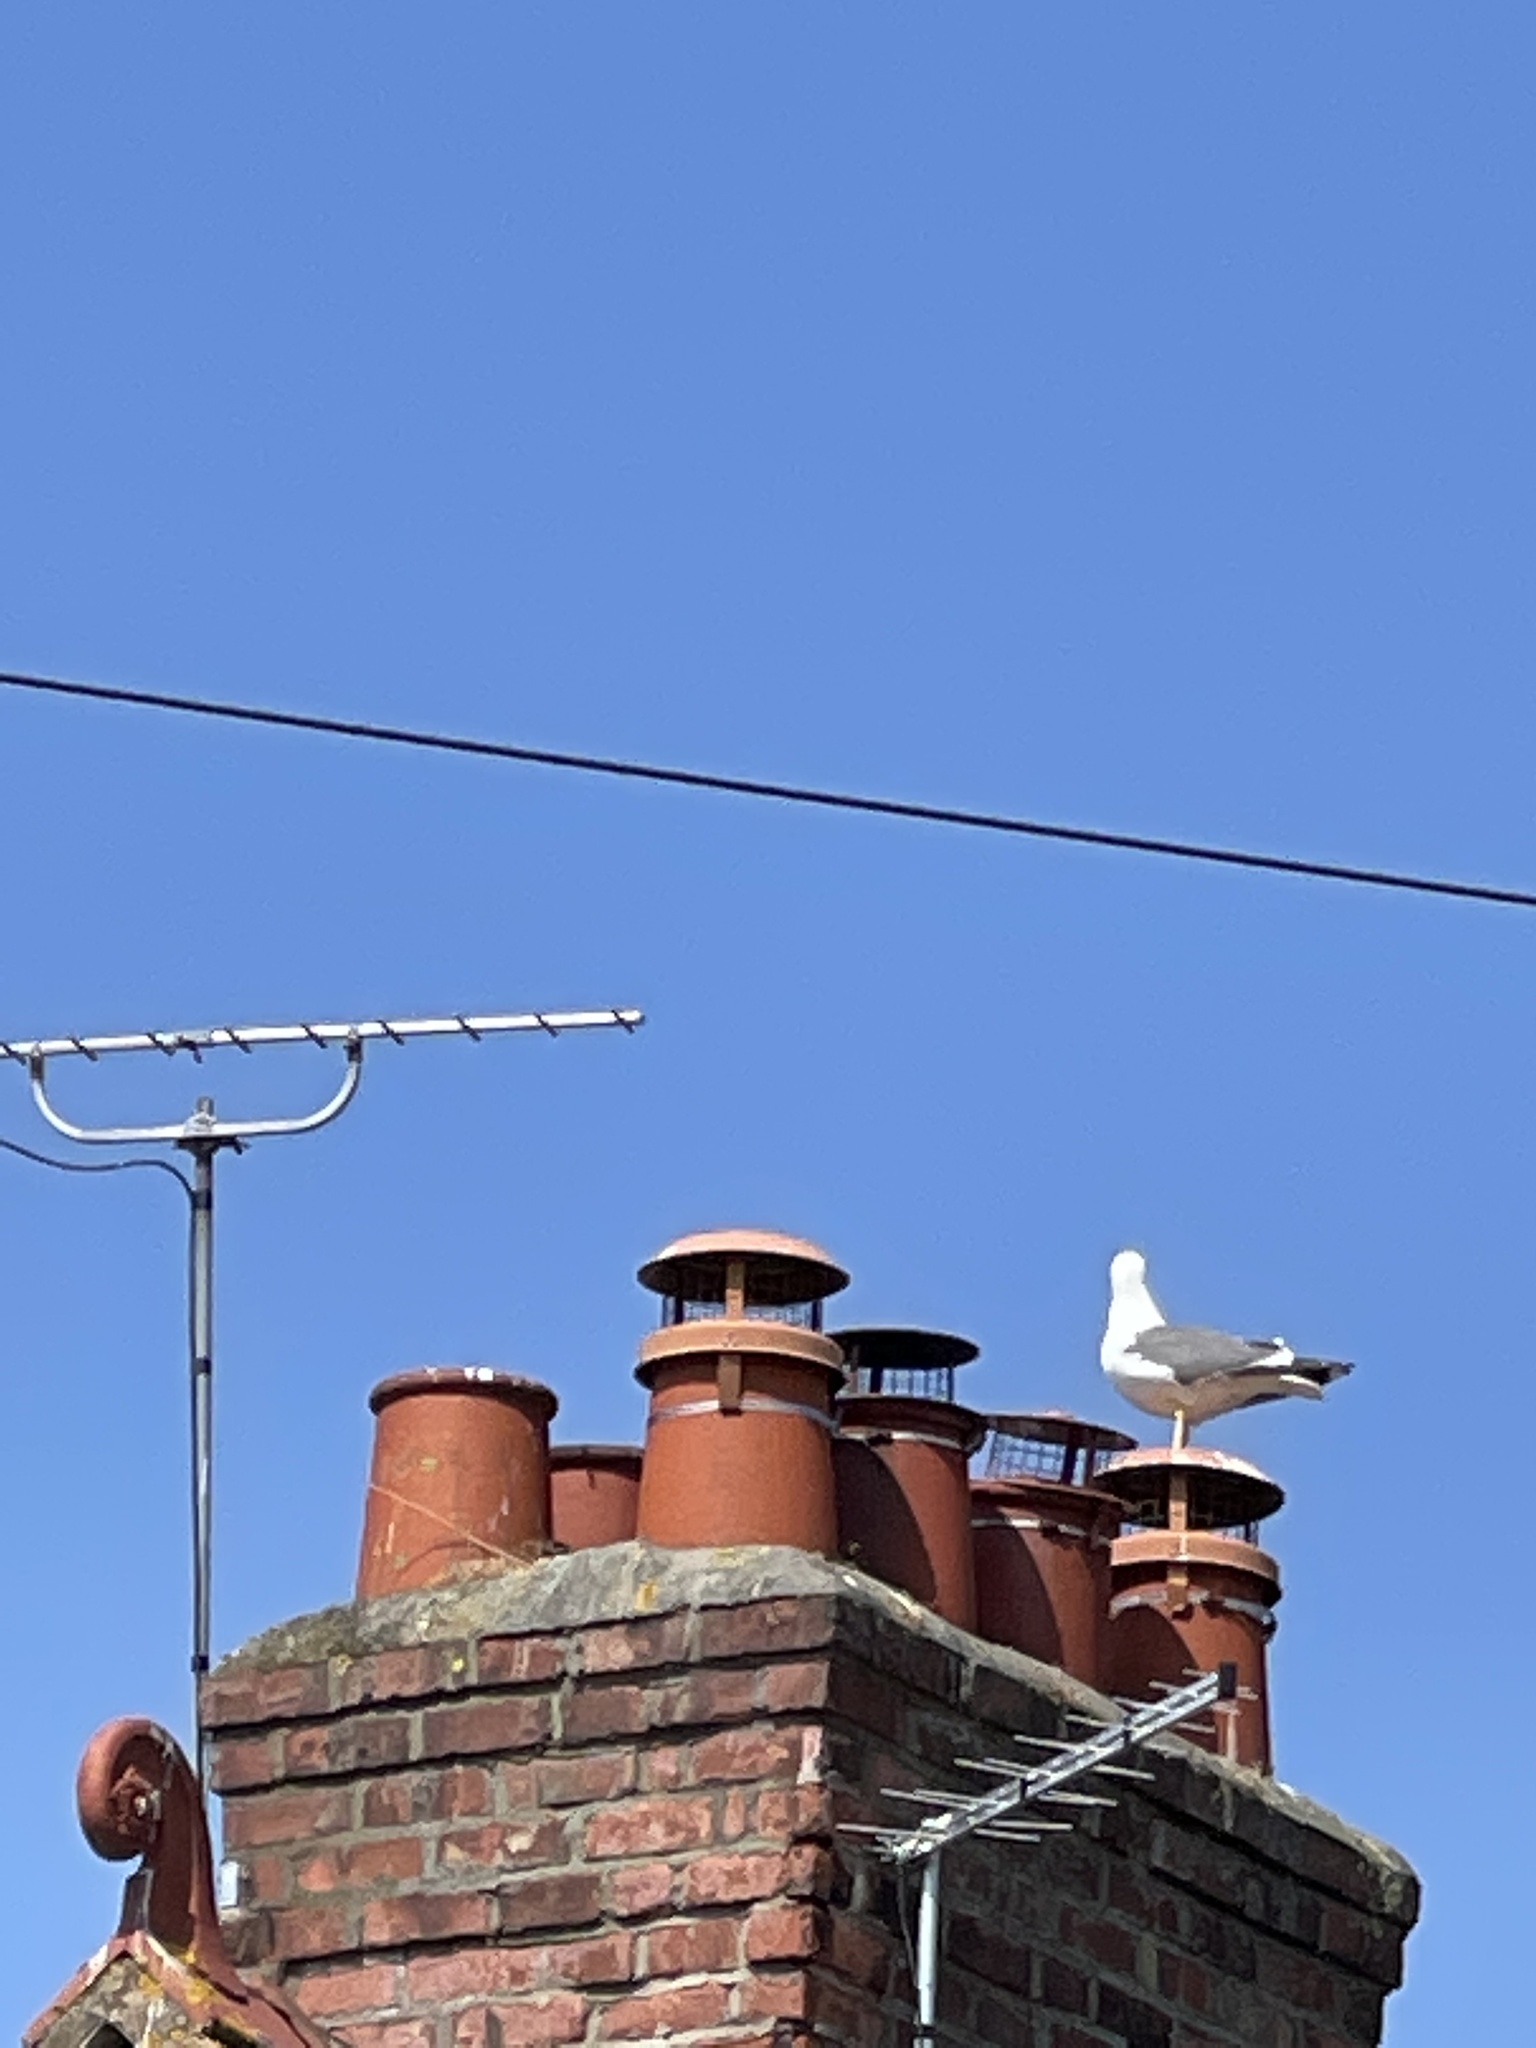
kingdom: Animalia
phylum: Chordata
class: Aves
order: Charadriiformes
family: Laridae
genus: Larus
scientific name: Larus fuscus
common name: Lesser black-backed gull
